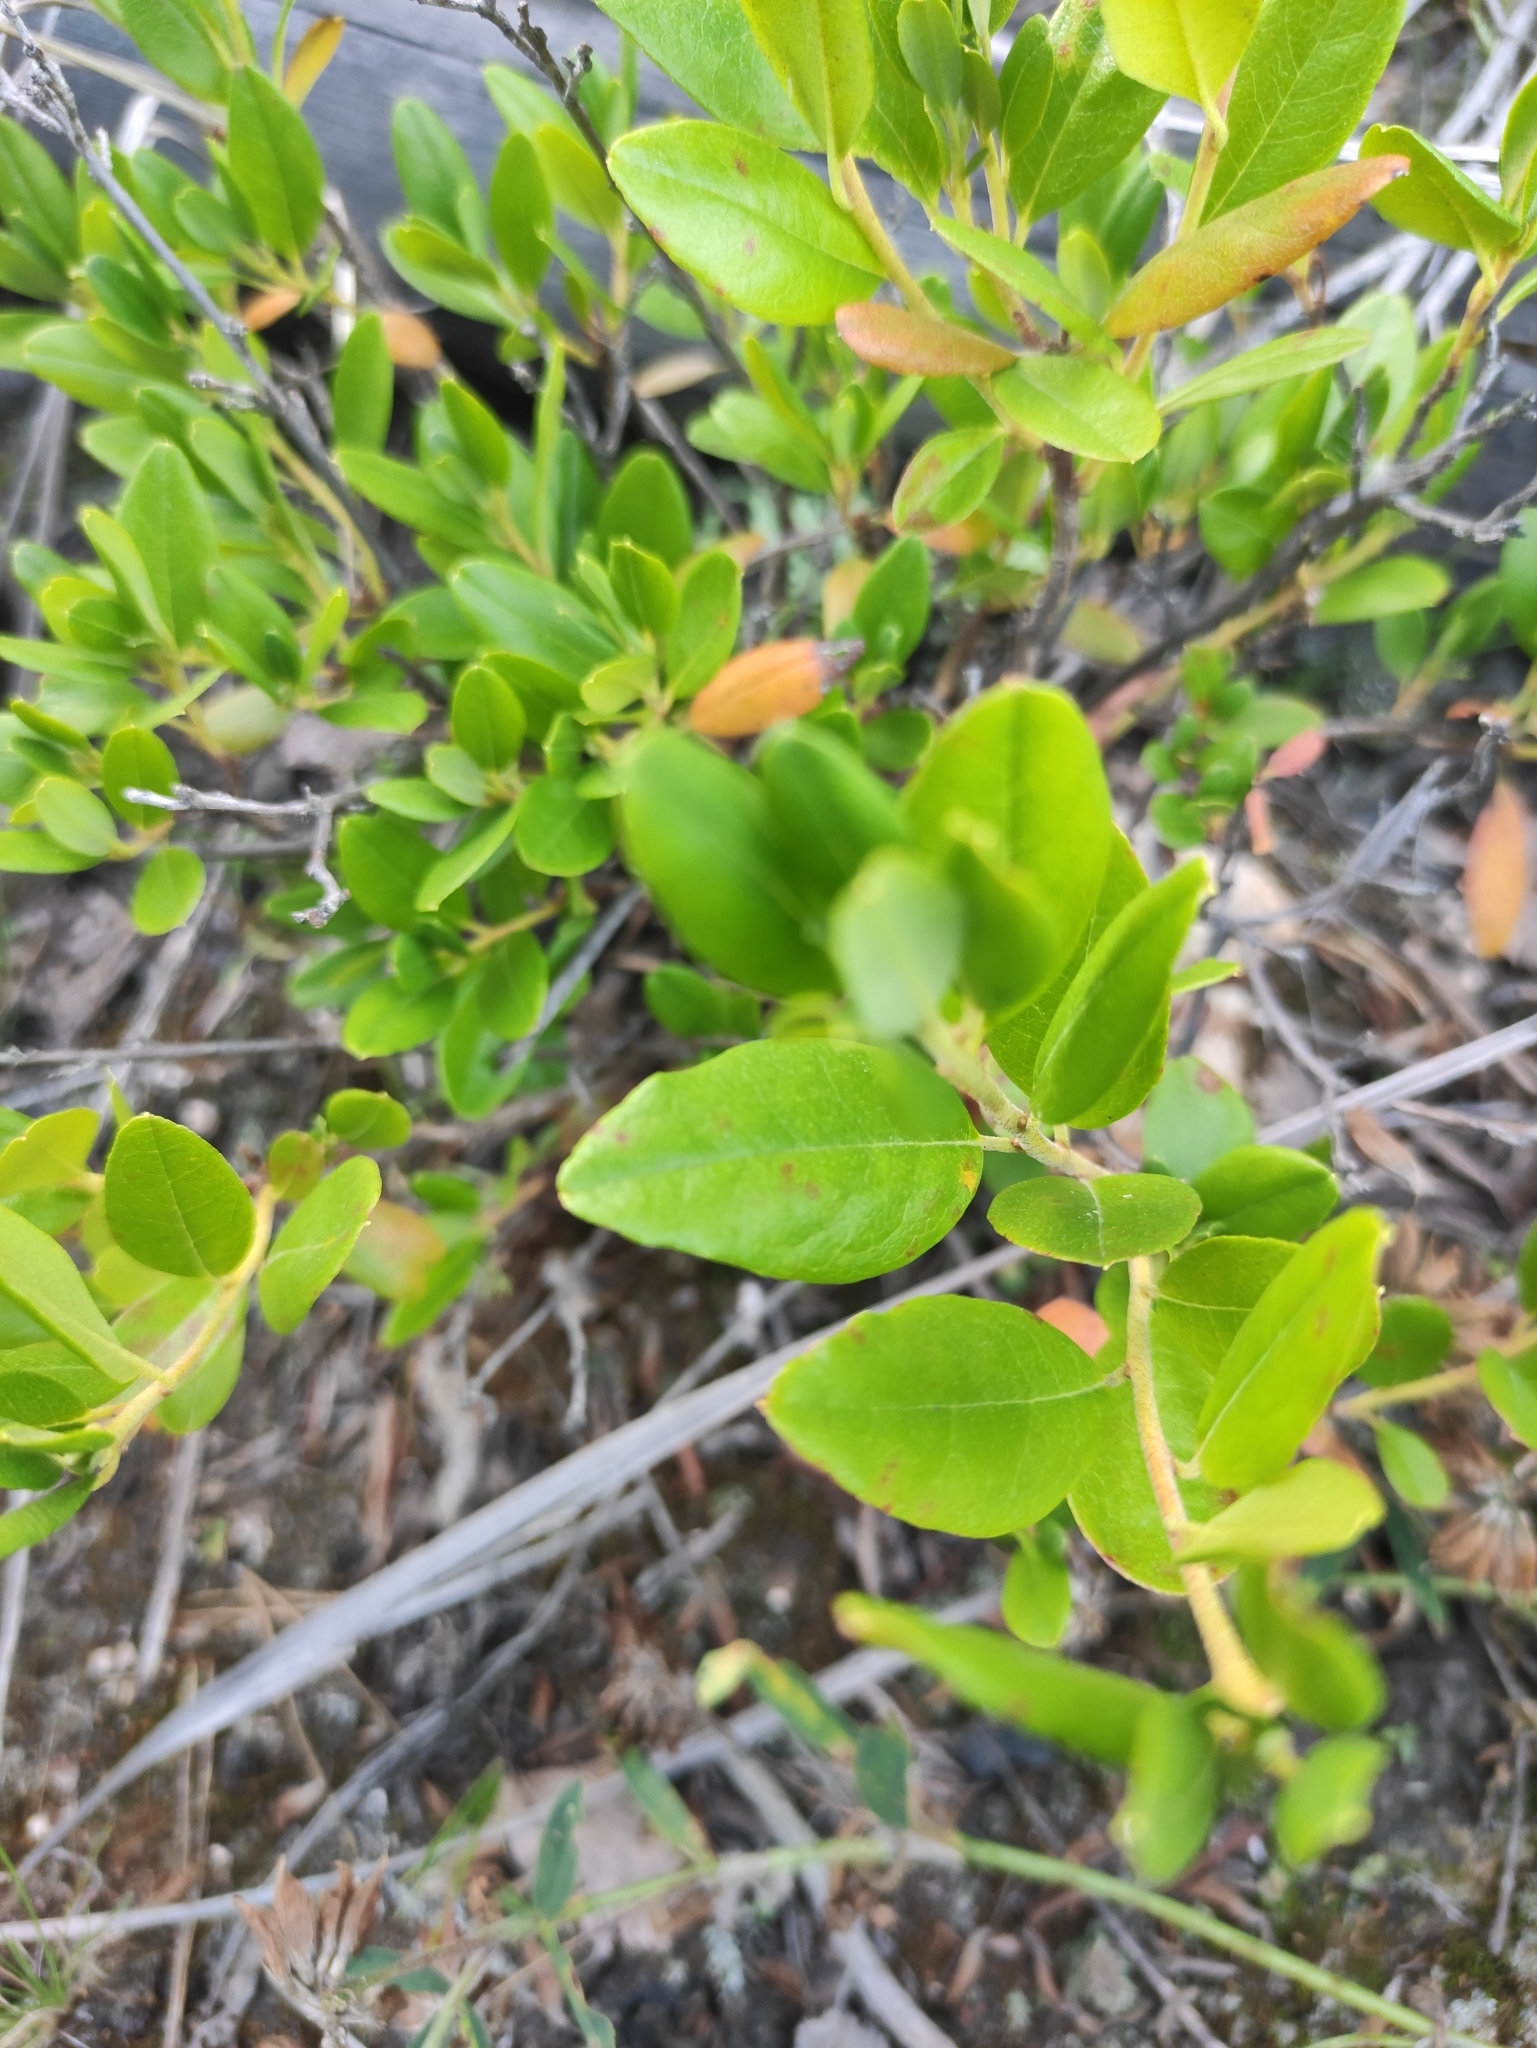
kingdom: Plantae
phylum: Tracheophyta
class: Magnoliopsida
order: Ericales
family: Ericaceae
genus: Chamaedaphne
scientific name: Chamaedaphne calyculata
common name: Leatherleaf
